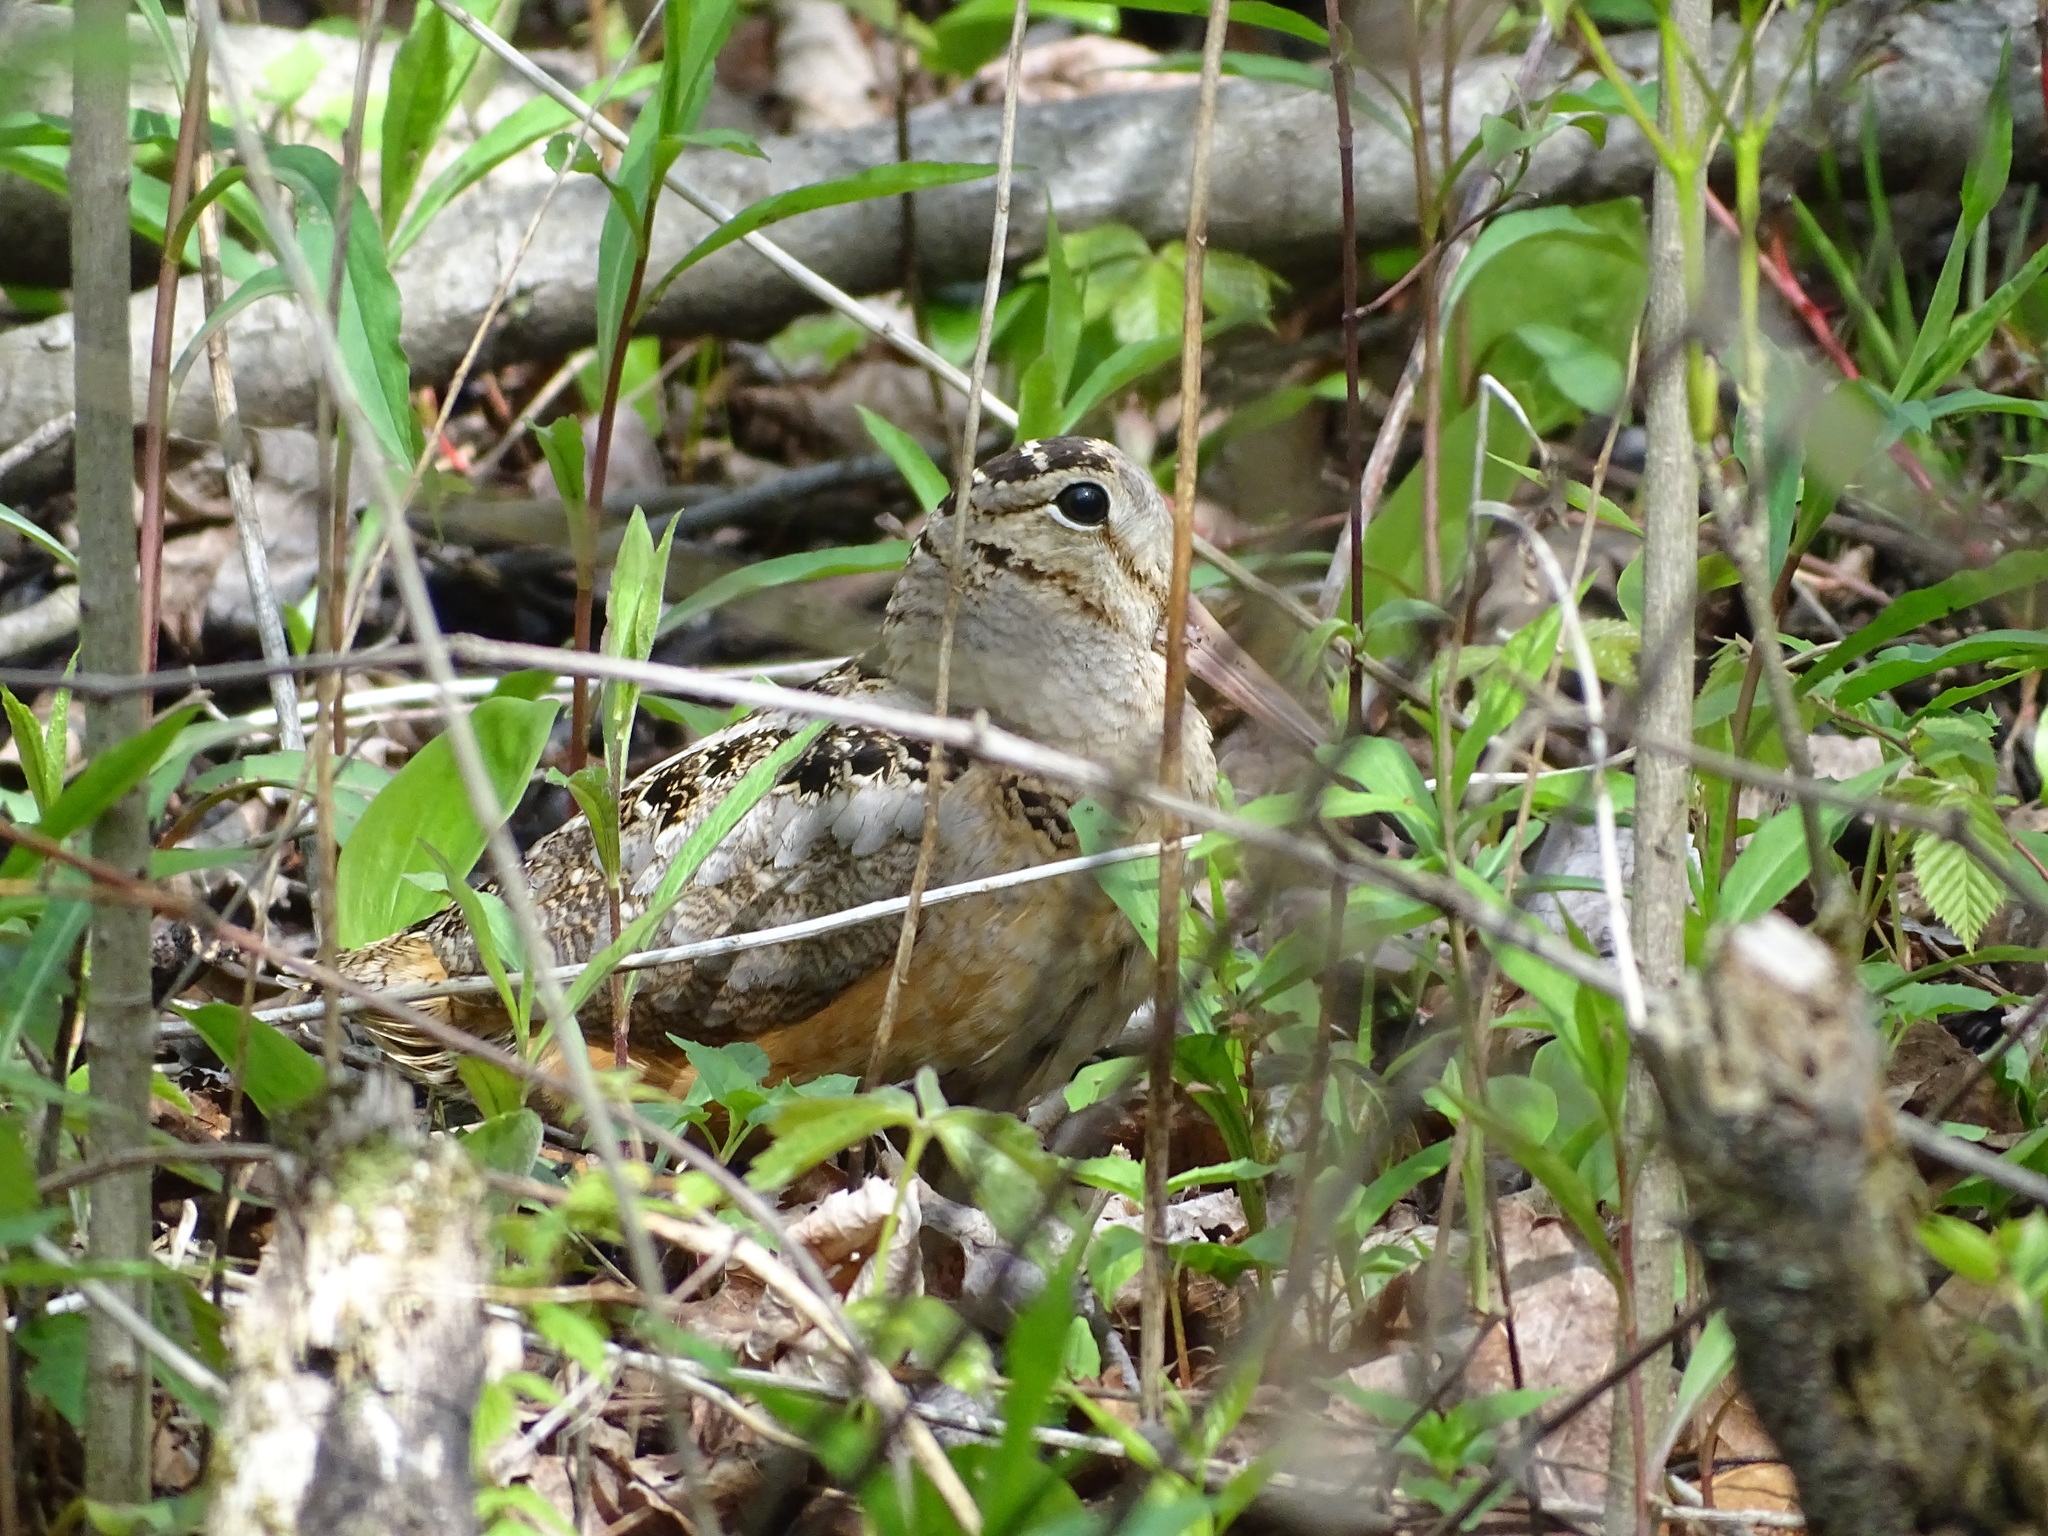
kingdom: Animalia
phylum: Chordata
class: Aves
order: Charadriiformes
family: Scolopacidae
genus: Scolopax
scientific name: Scolopax minor
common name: American woodcock
